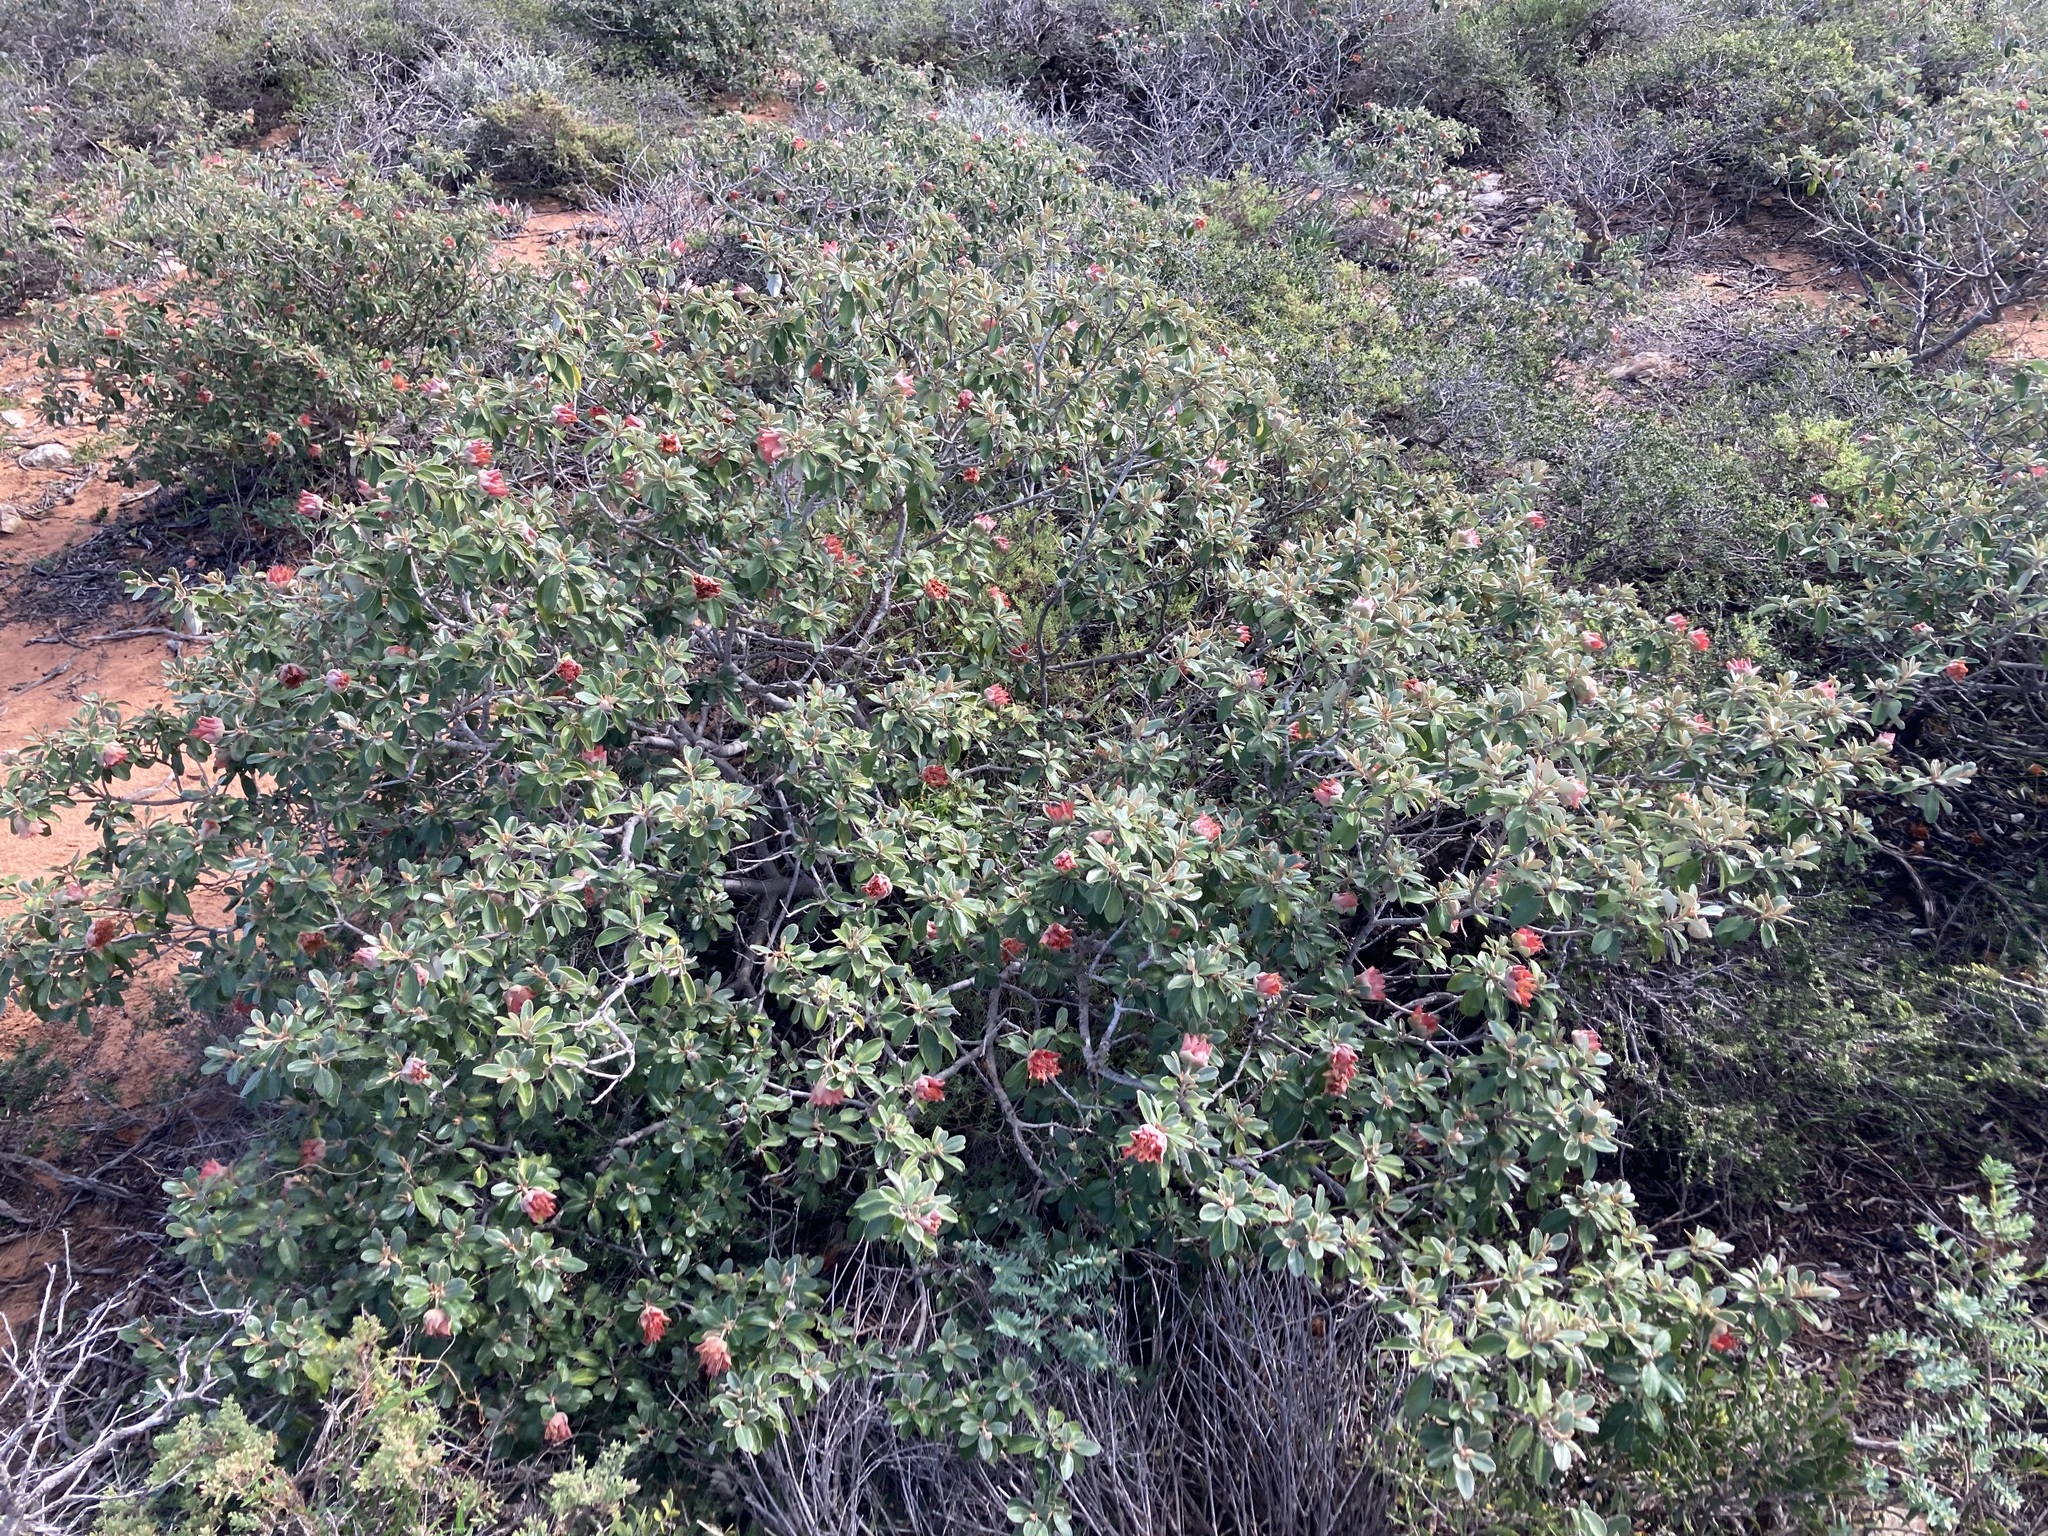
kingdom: Plantae
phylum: Tracheophyta
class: Magnoliopsida
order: Sapindales
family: Rutaceae
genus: Diplolaena
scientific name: Diplolaena grandiflora
